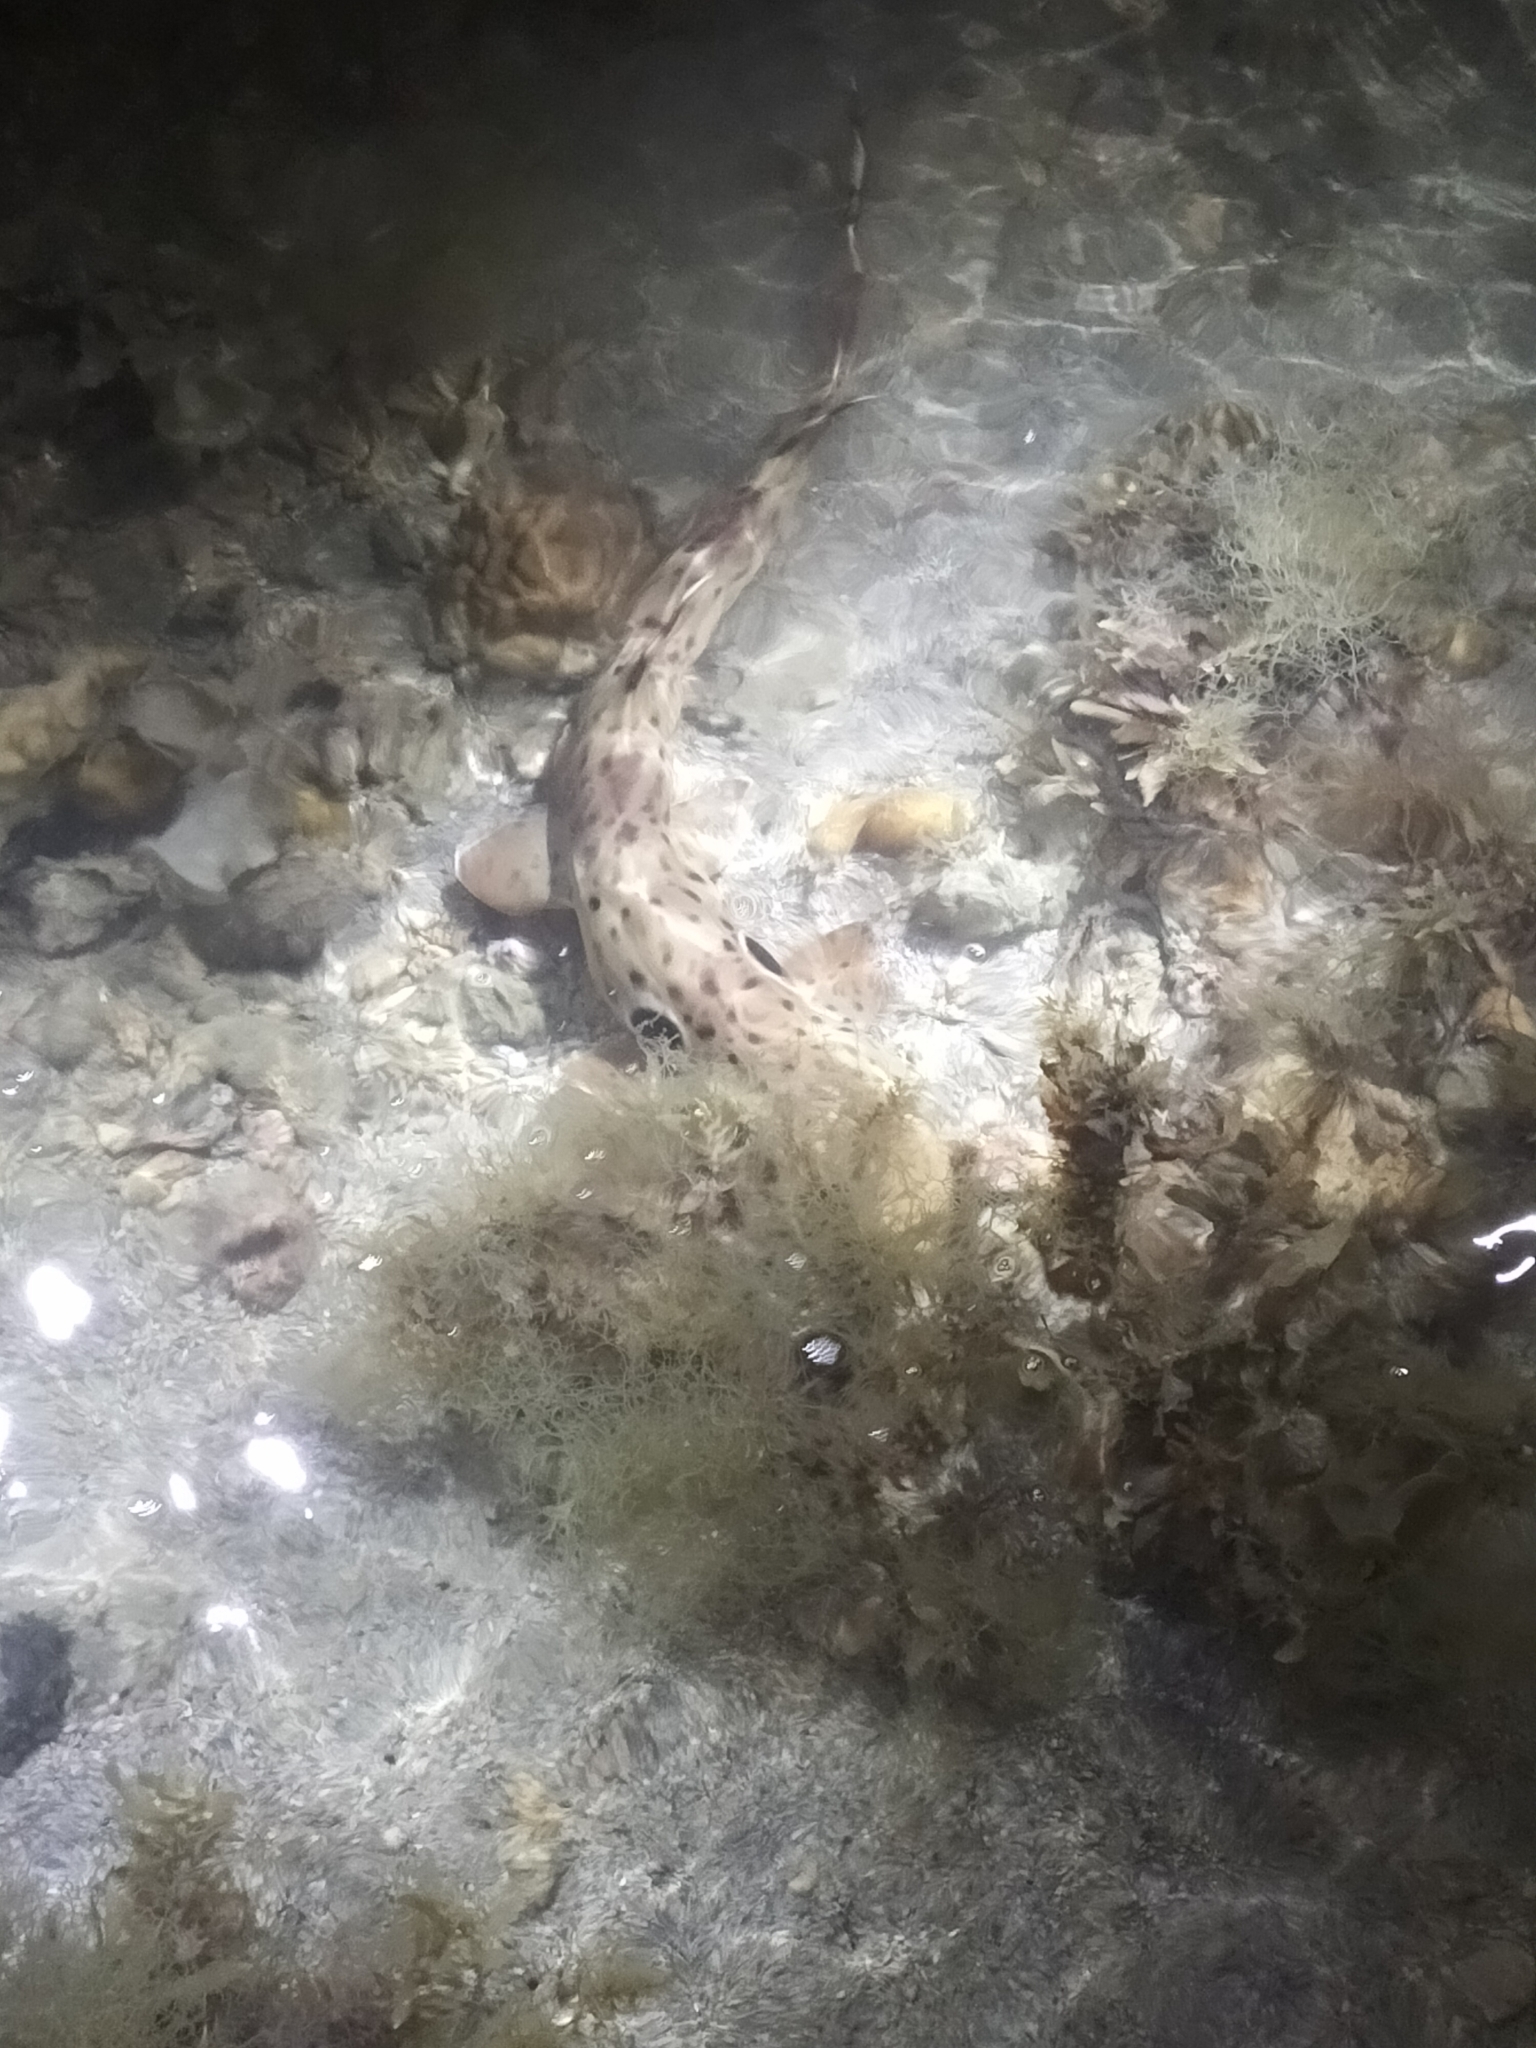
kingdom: Animalia
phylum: Chordata
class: Elasmobranchii
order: Orectolobiformes
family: Hemiscylliidae
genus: Hemiscyllium
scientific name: Hemiscyllium ocellatum
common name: Epaulette shark
